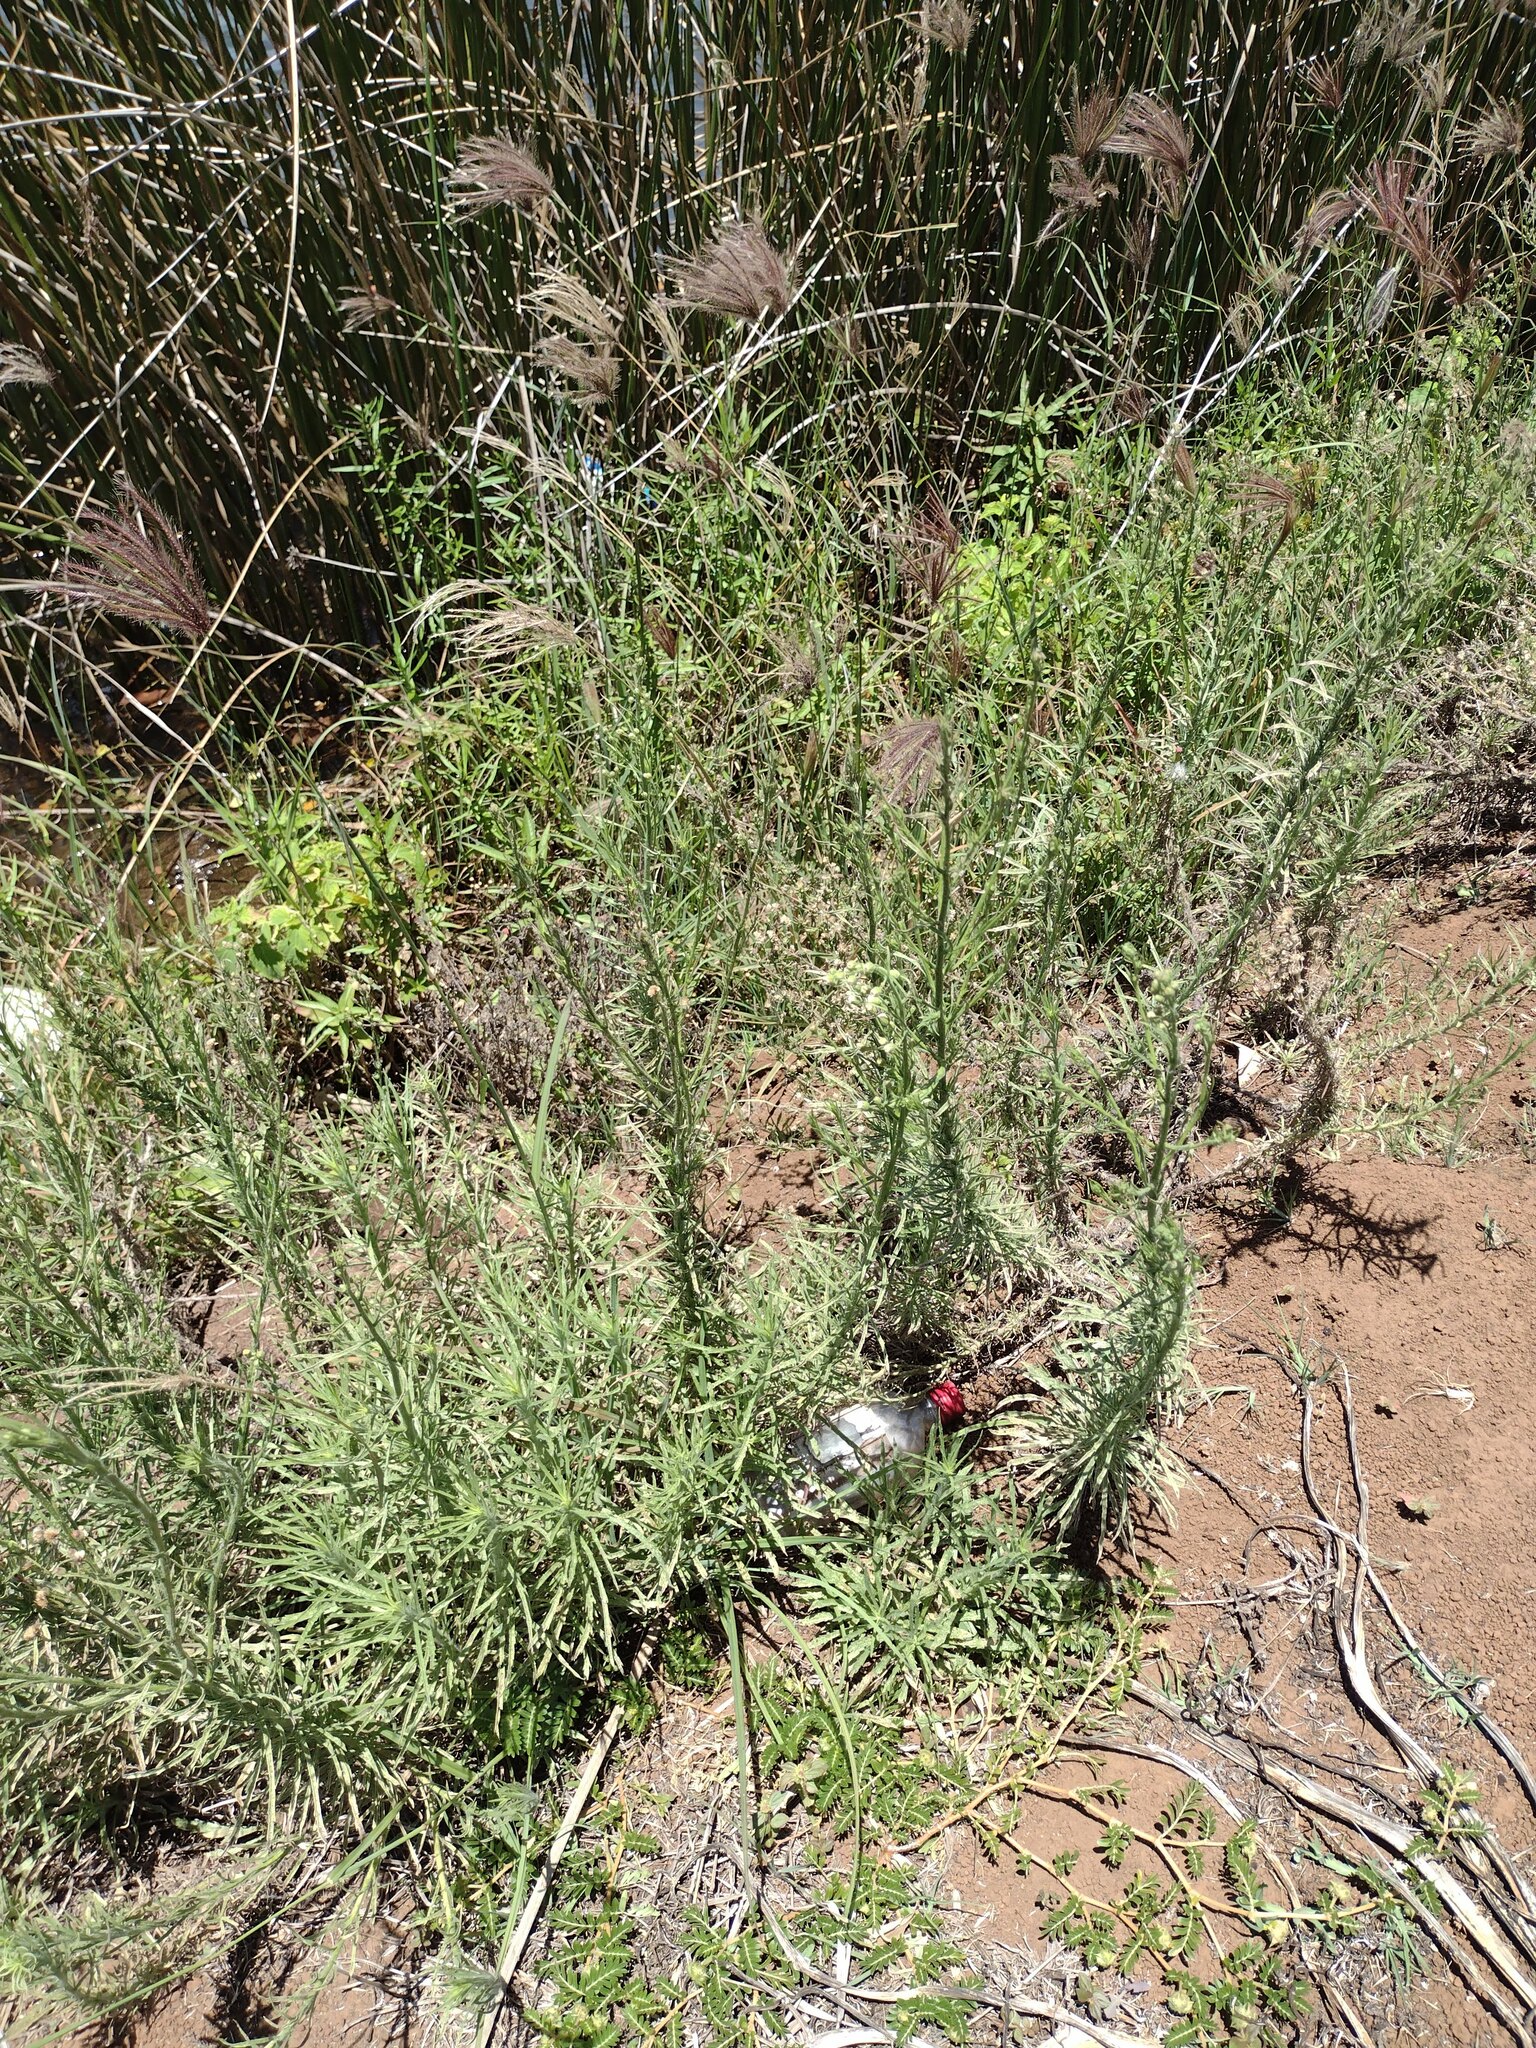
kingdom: Plantae
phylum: Tracheophyta
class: Magnoliopsida
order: Asterales
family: Asteraceae
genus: Erigeron
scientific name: Erigeron bonariensis
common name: Argentine fleabane
